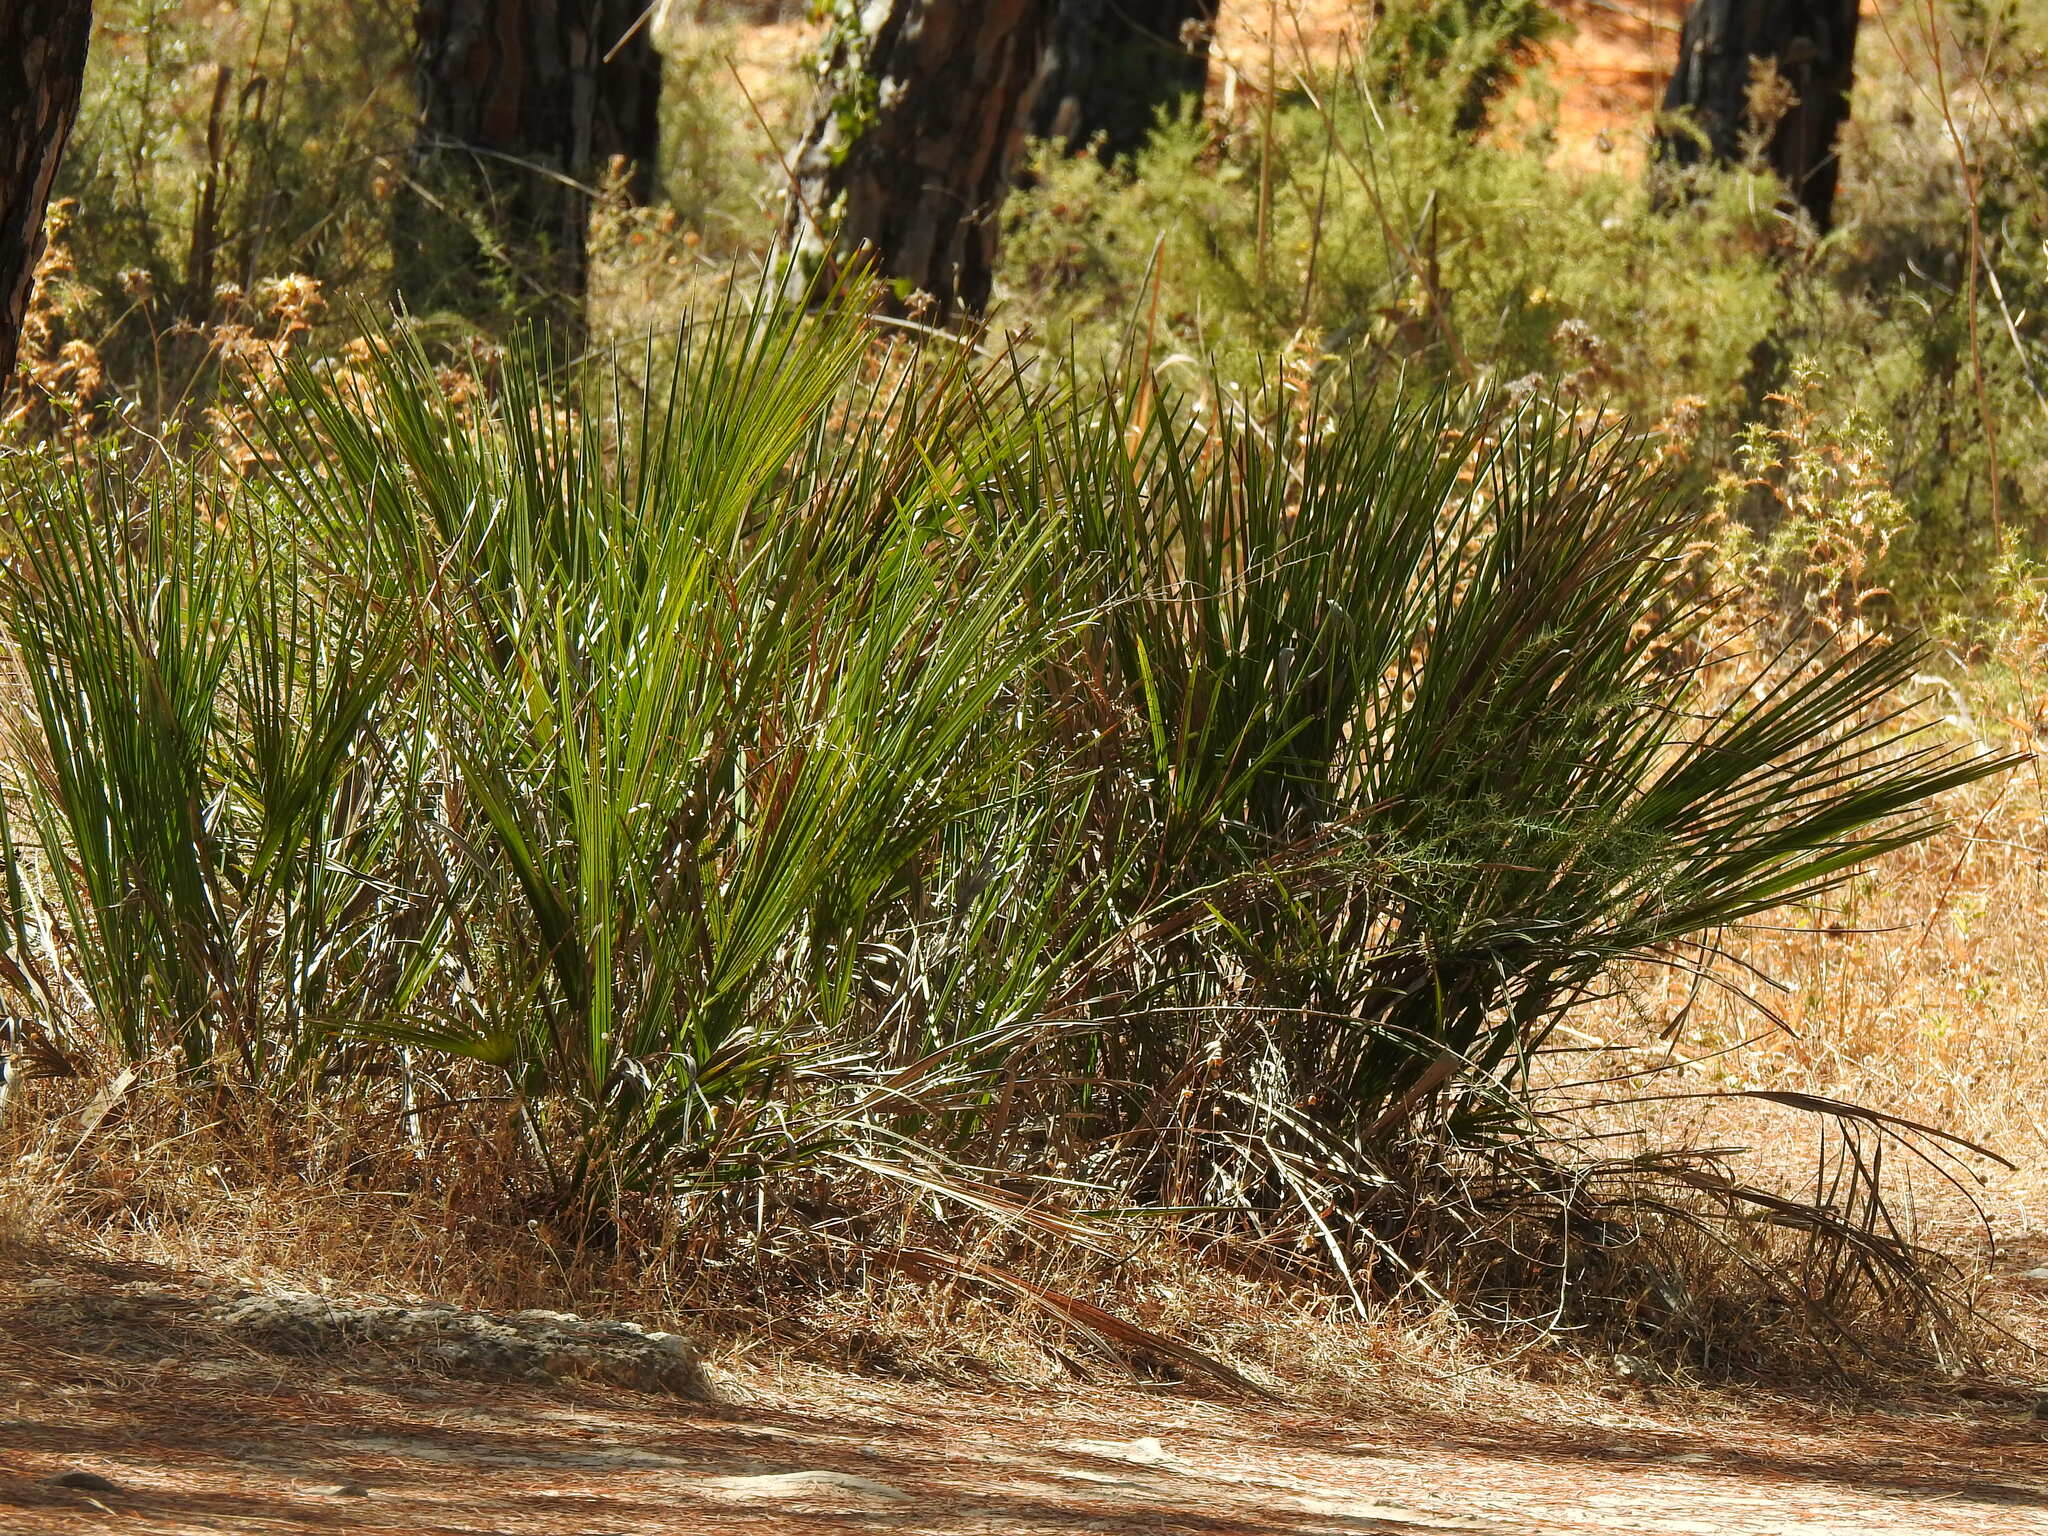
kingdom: Plantae
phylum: Tracheophyta
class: Liliopsida
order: Arecales
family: Arecaceae
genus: Chamaerops
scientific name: Chamaerops humilis
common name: Dwarf fan palm
